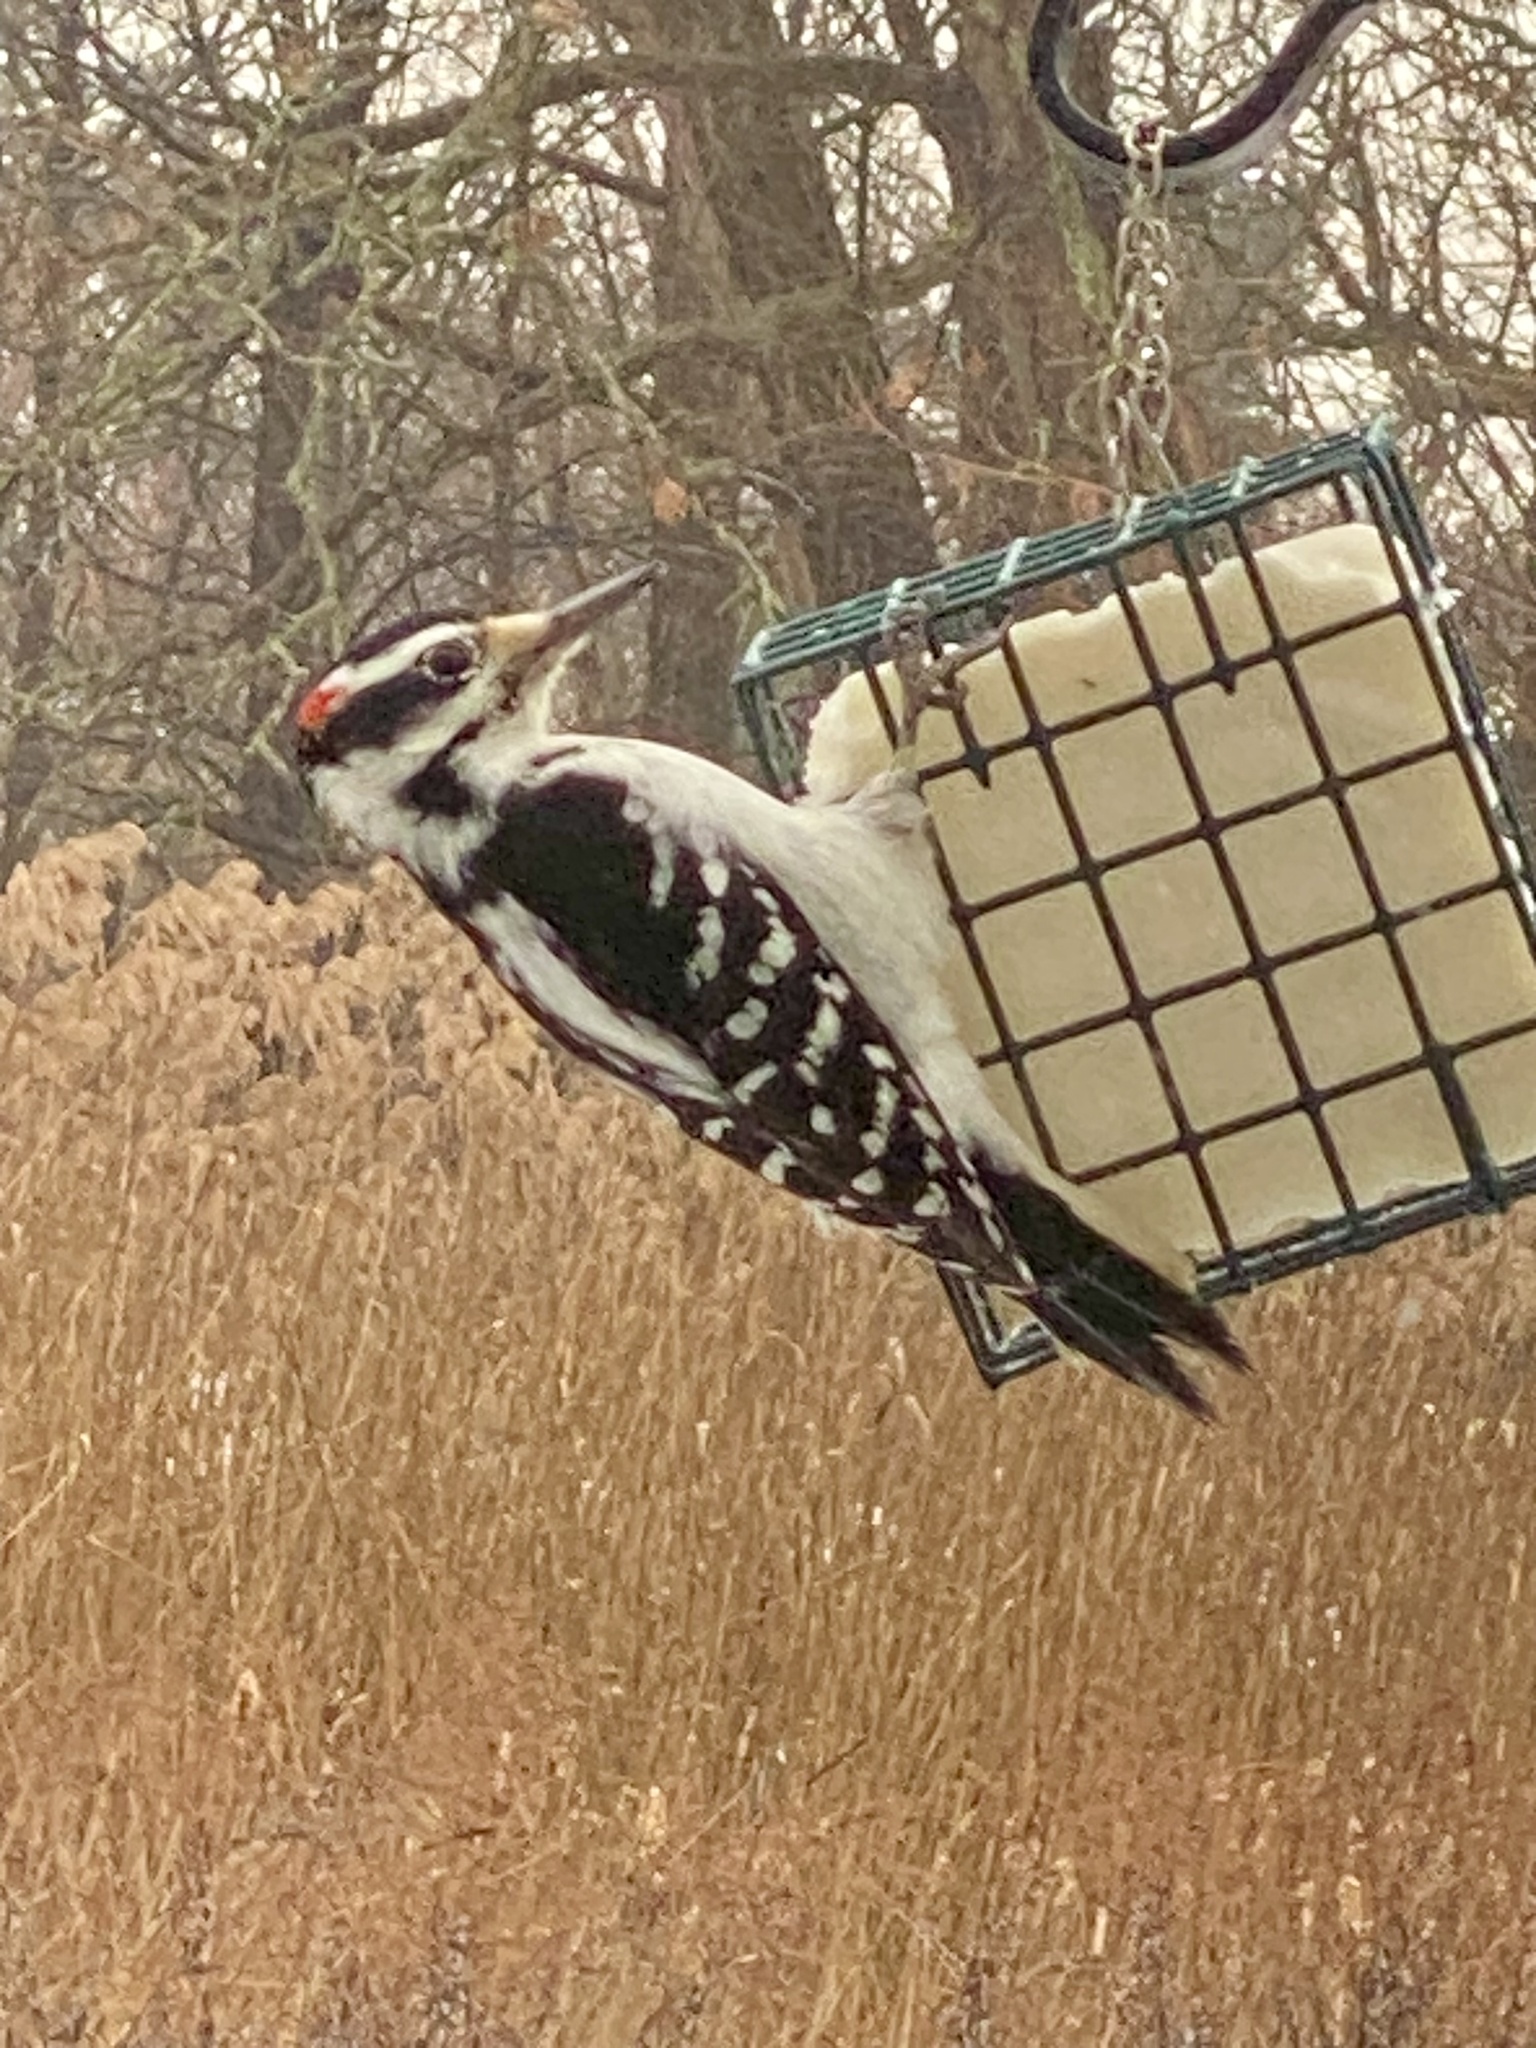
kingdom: Animalia
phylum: Chordata
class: Aves
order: Piciformes
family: Picidae
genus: Leuconotopicus
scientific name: Leuconotopicus villosus
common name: Hairy woodpecker
